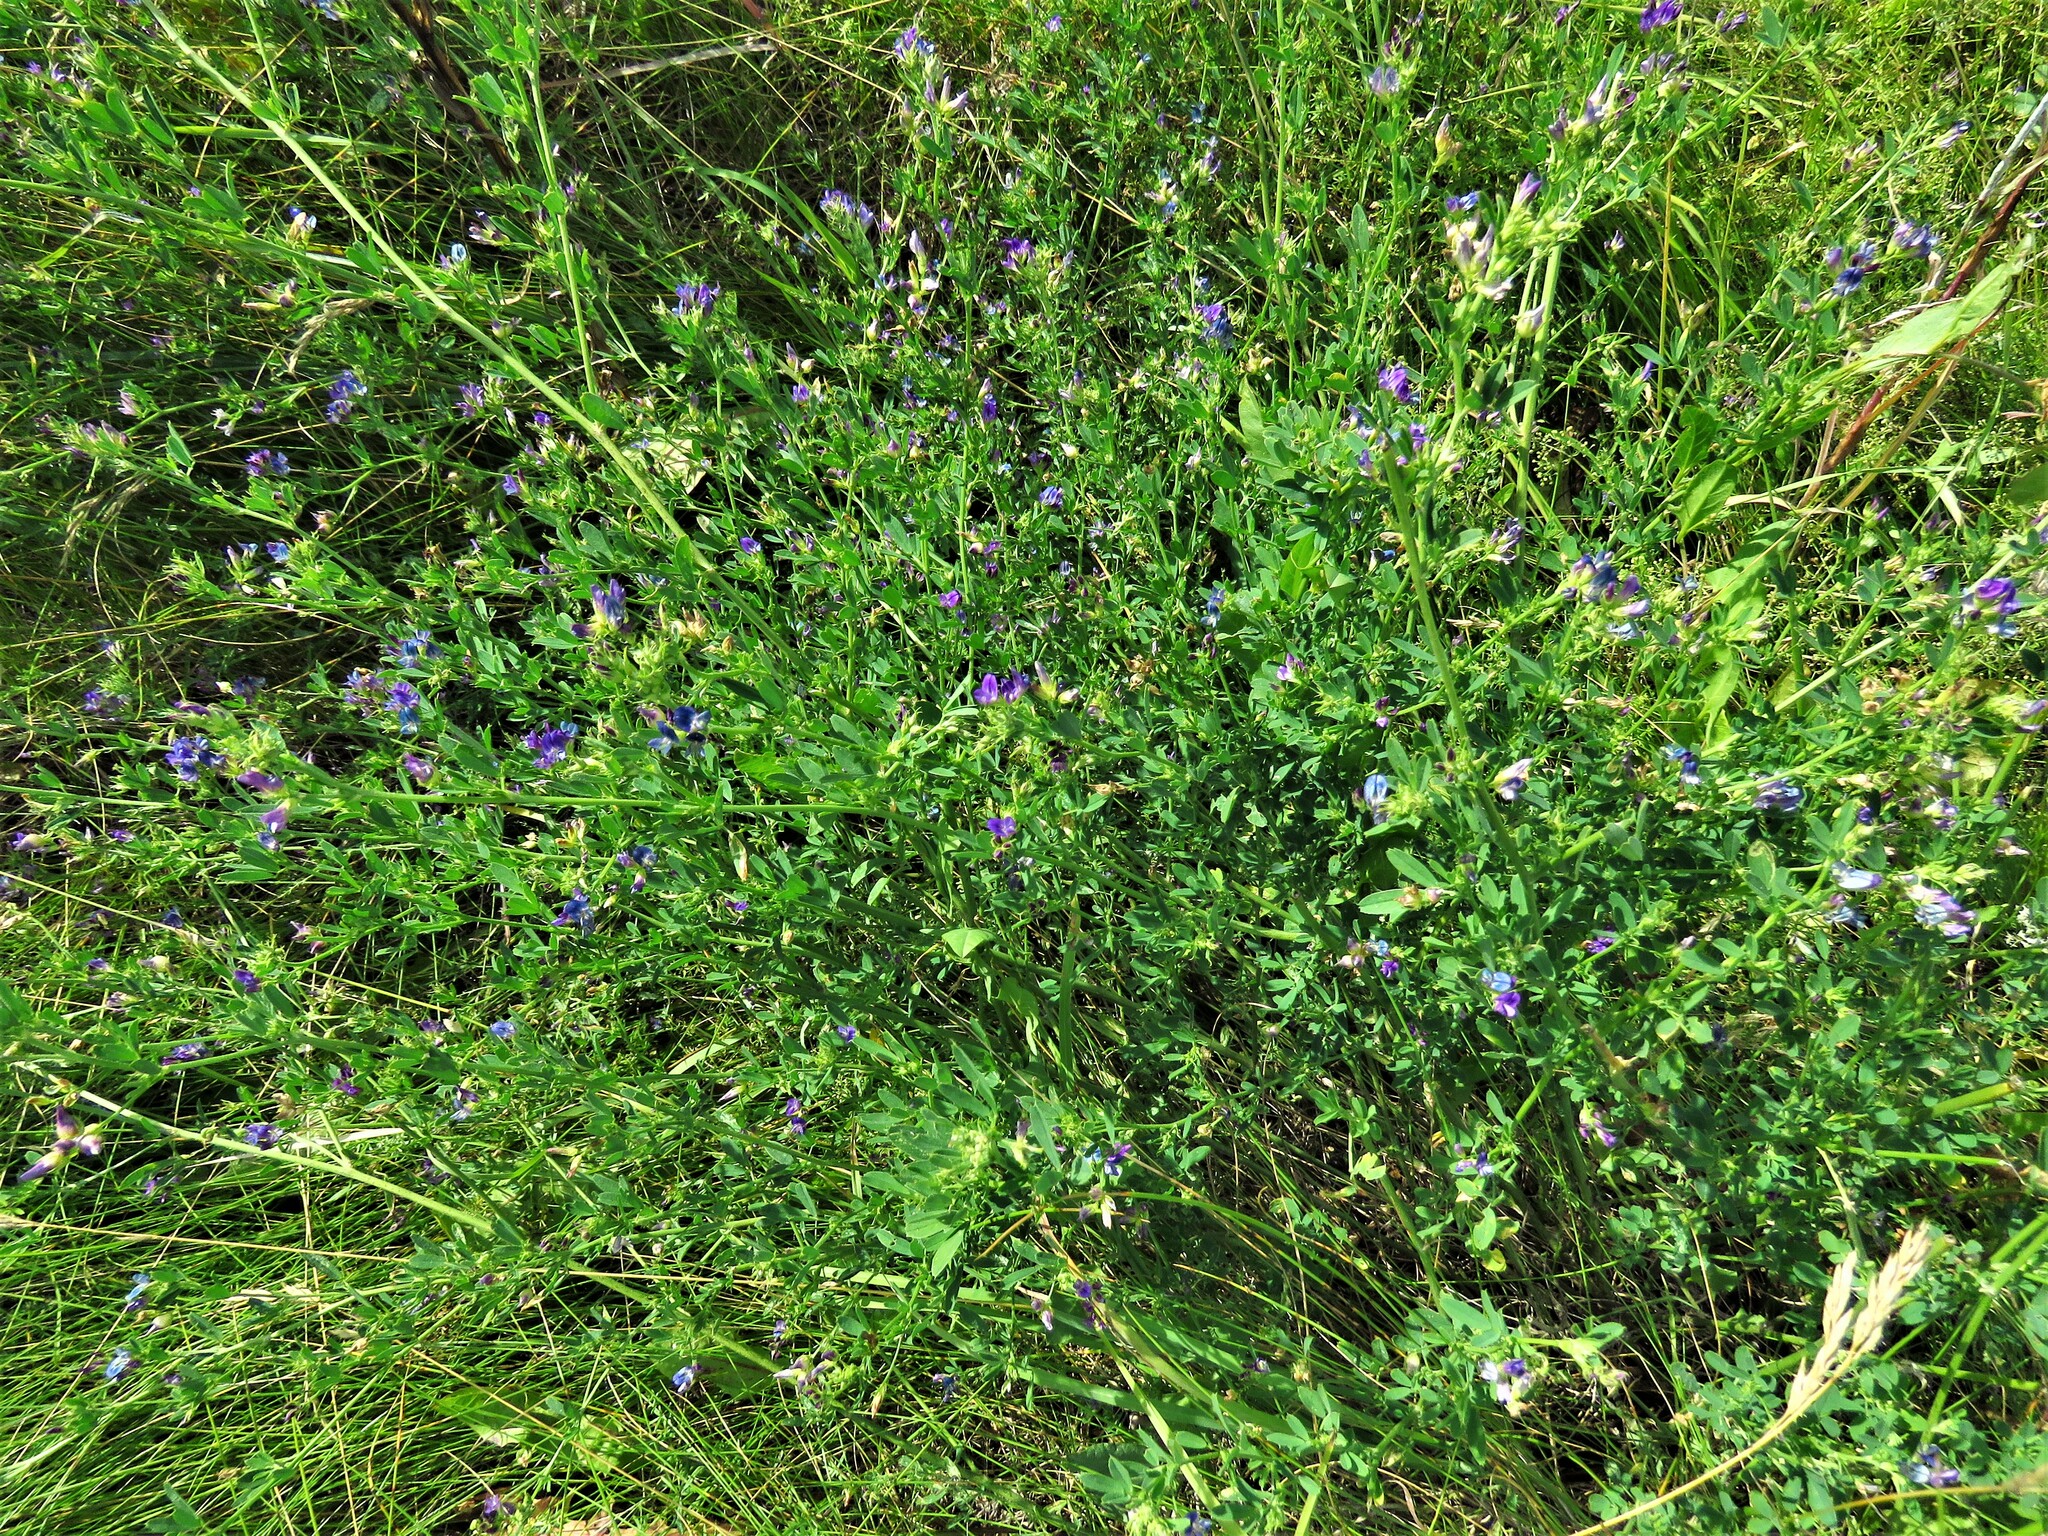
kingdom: Plantae
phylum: Tracheophyta
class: Magnoliopsida
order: Fabales
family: Fabaceae
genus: Medicago
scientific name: Medicago sativa
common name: Alfalfa
